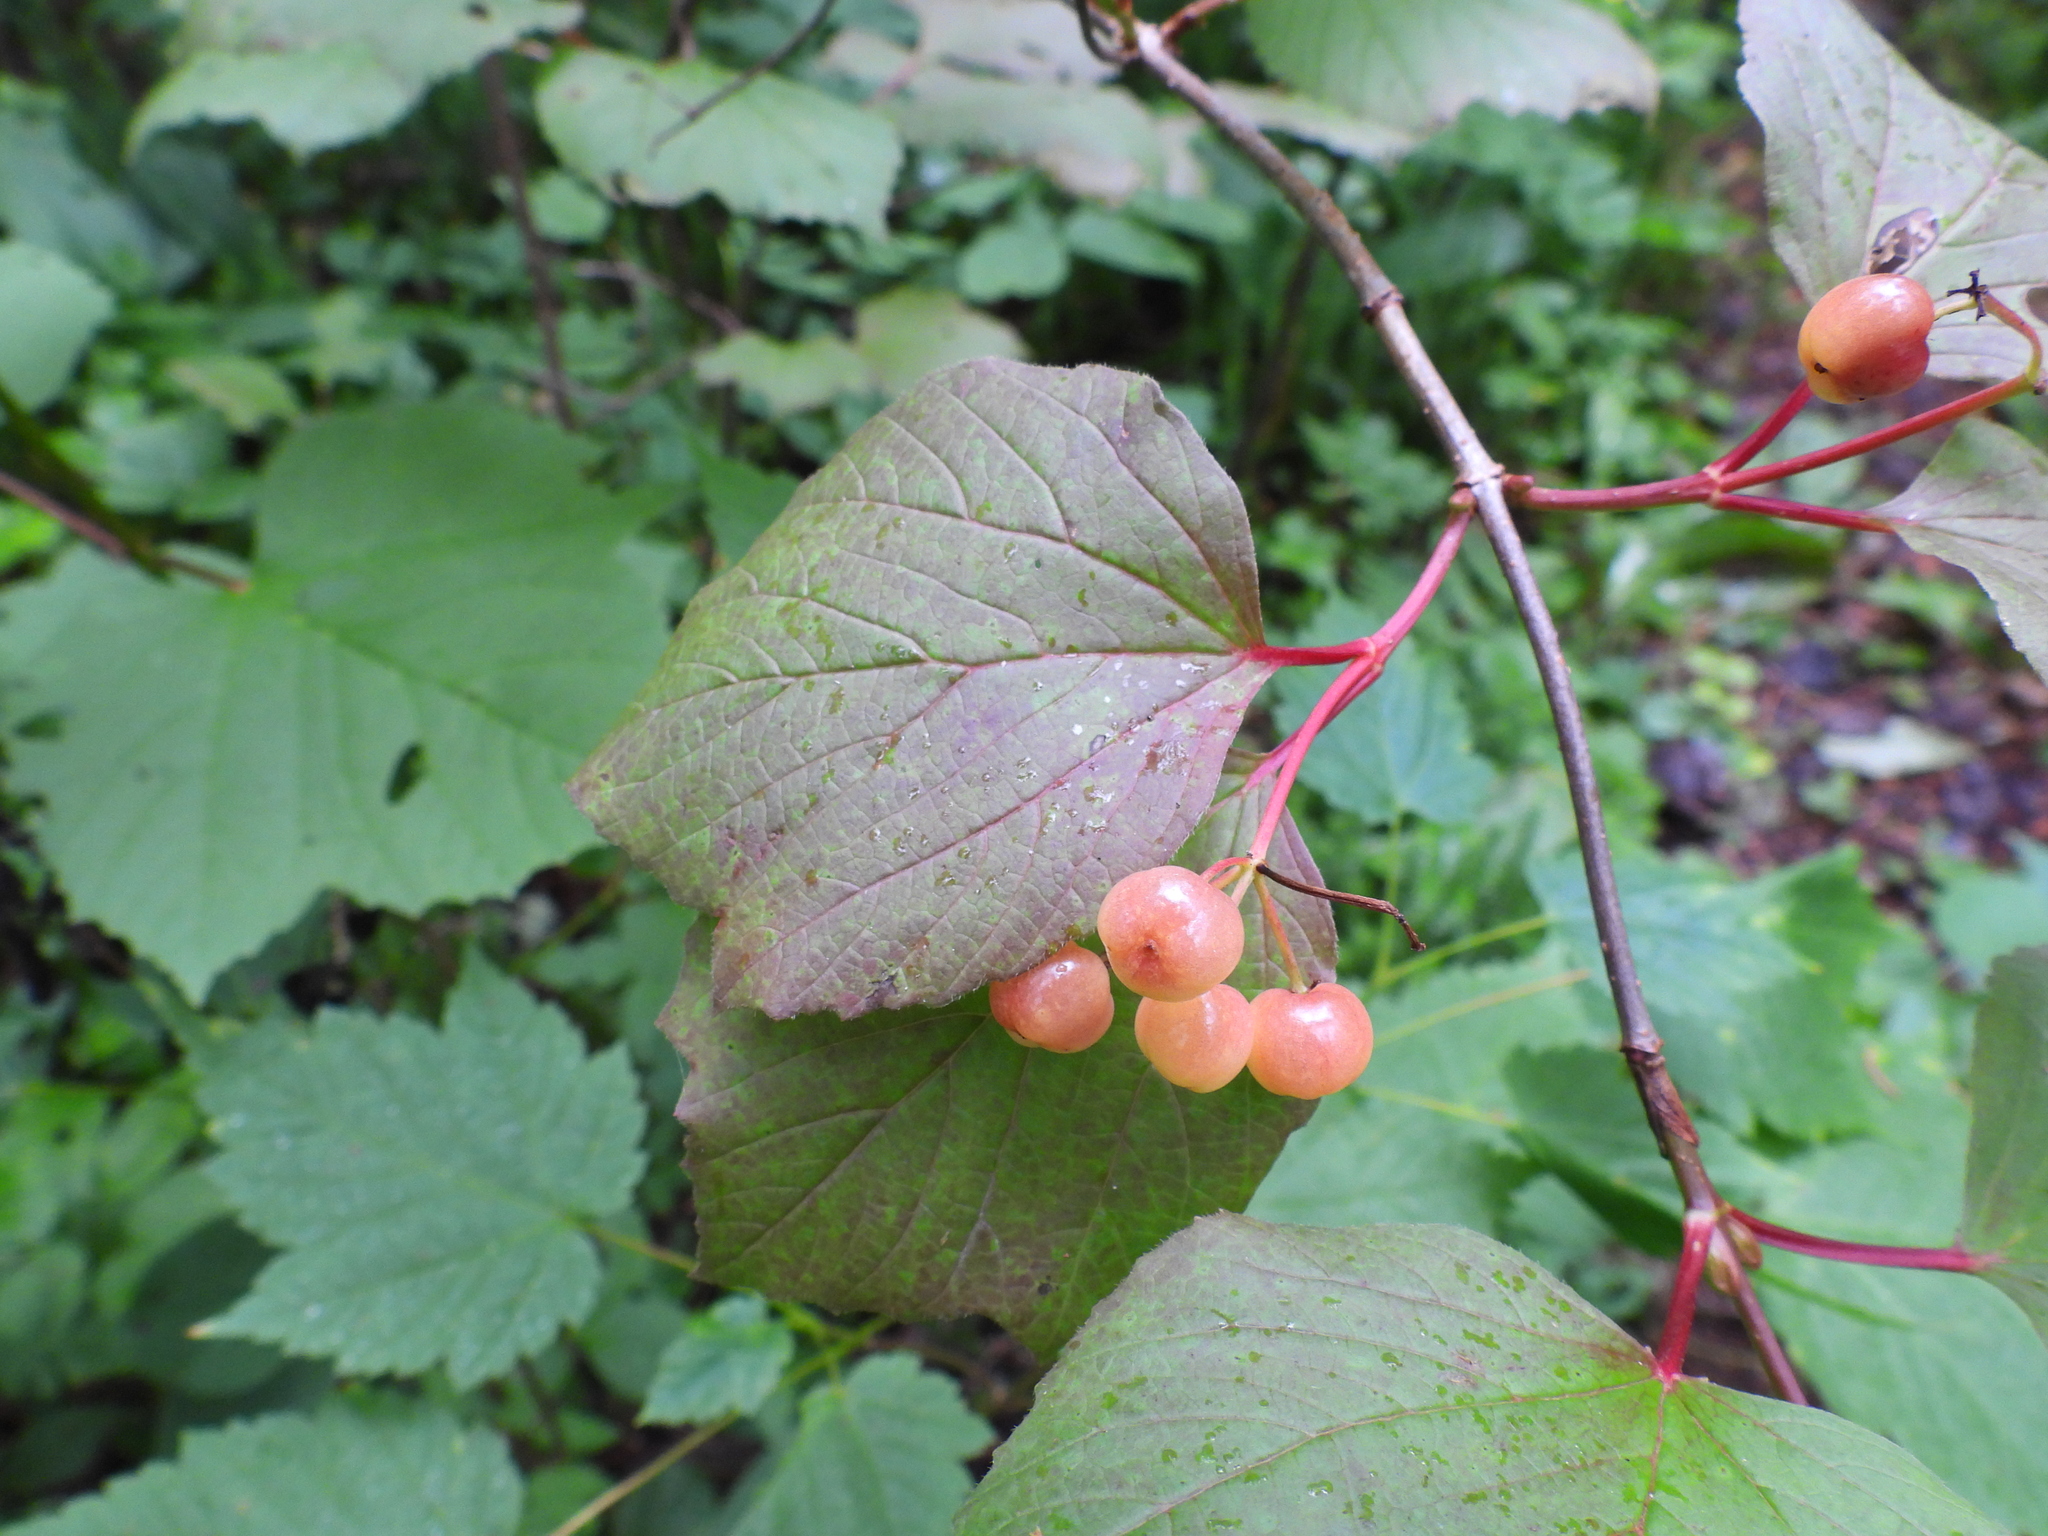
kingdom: Plantae
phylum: Tracheophyta
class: Magnoliopsida
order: Dipsacales
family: Viburnaceae
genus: Viburnum
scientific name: Viburnum edule
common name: Mooseberry
